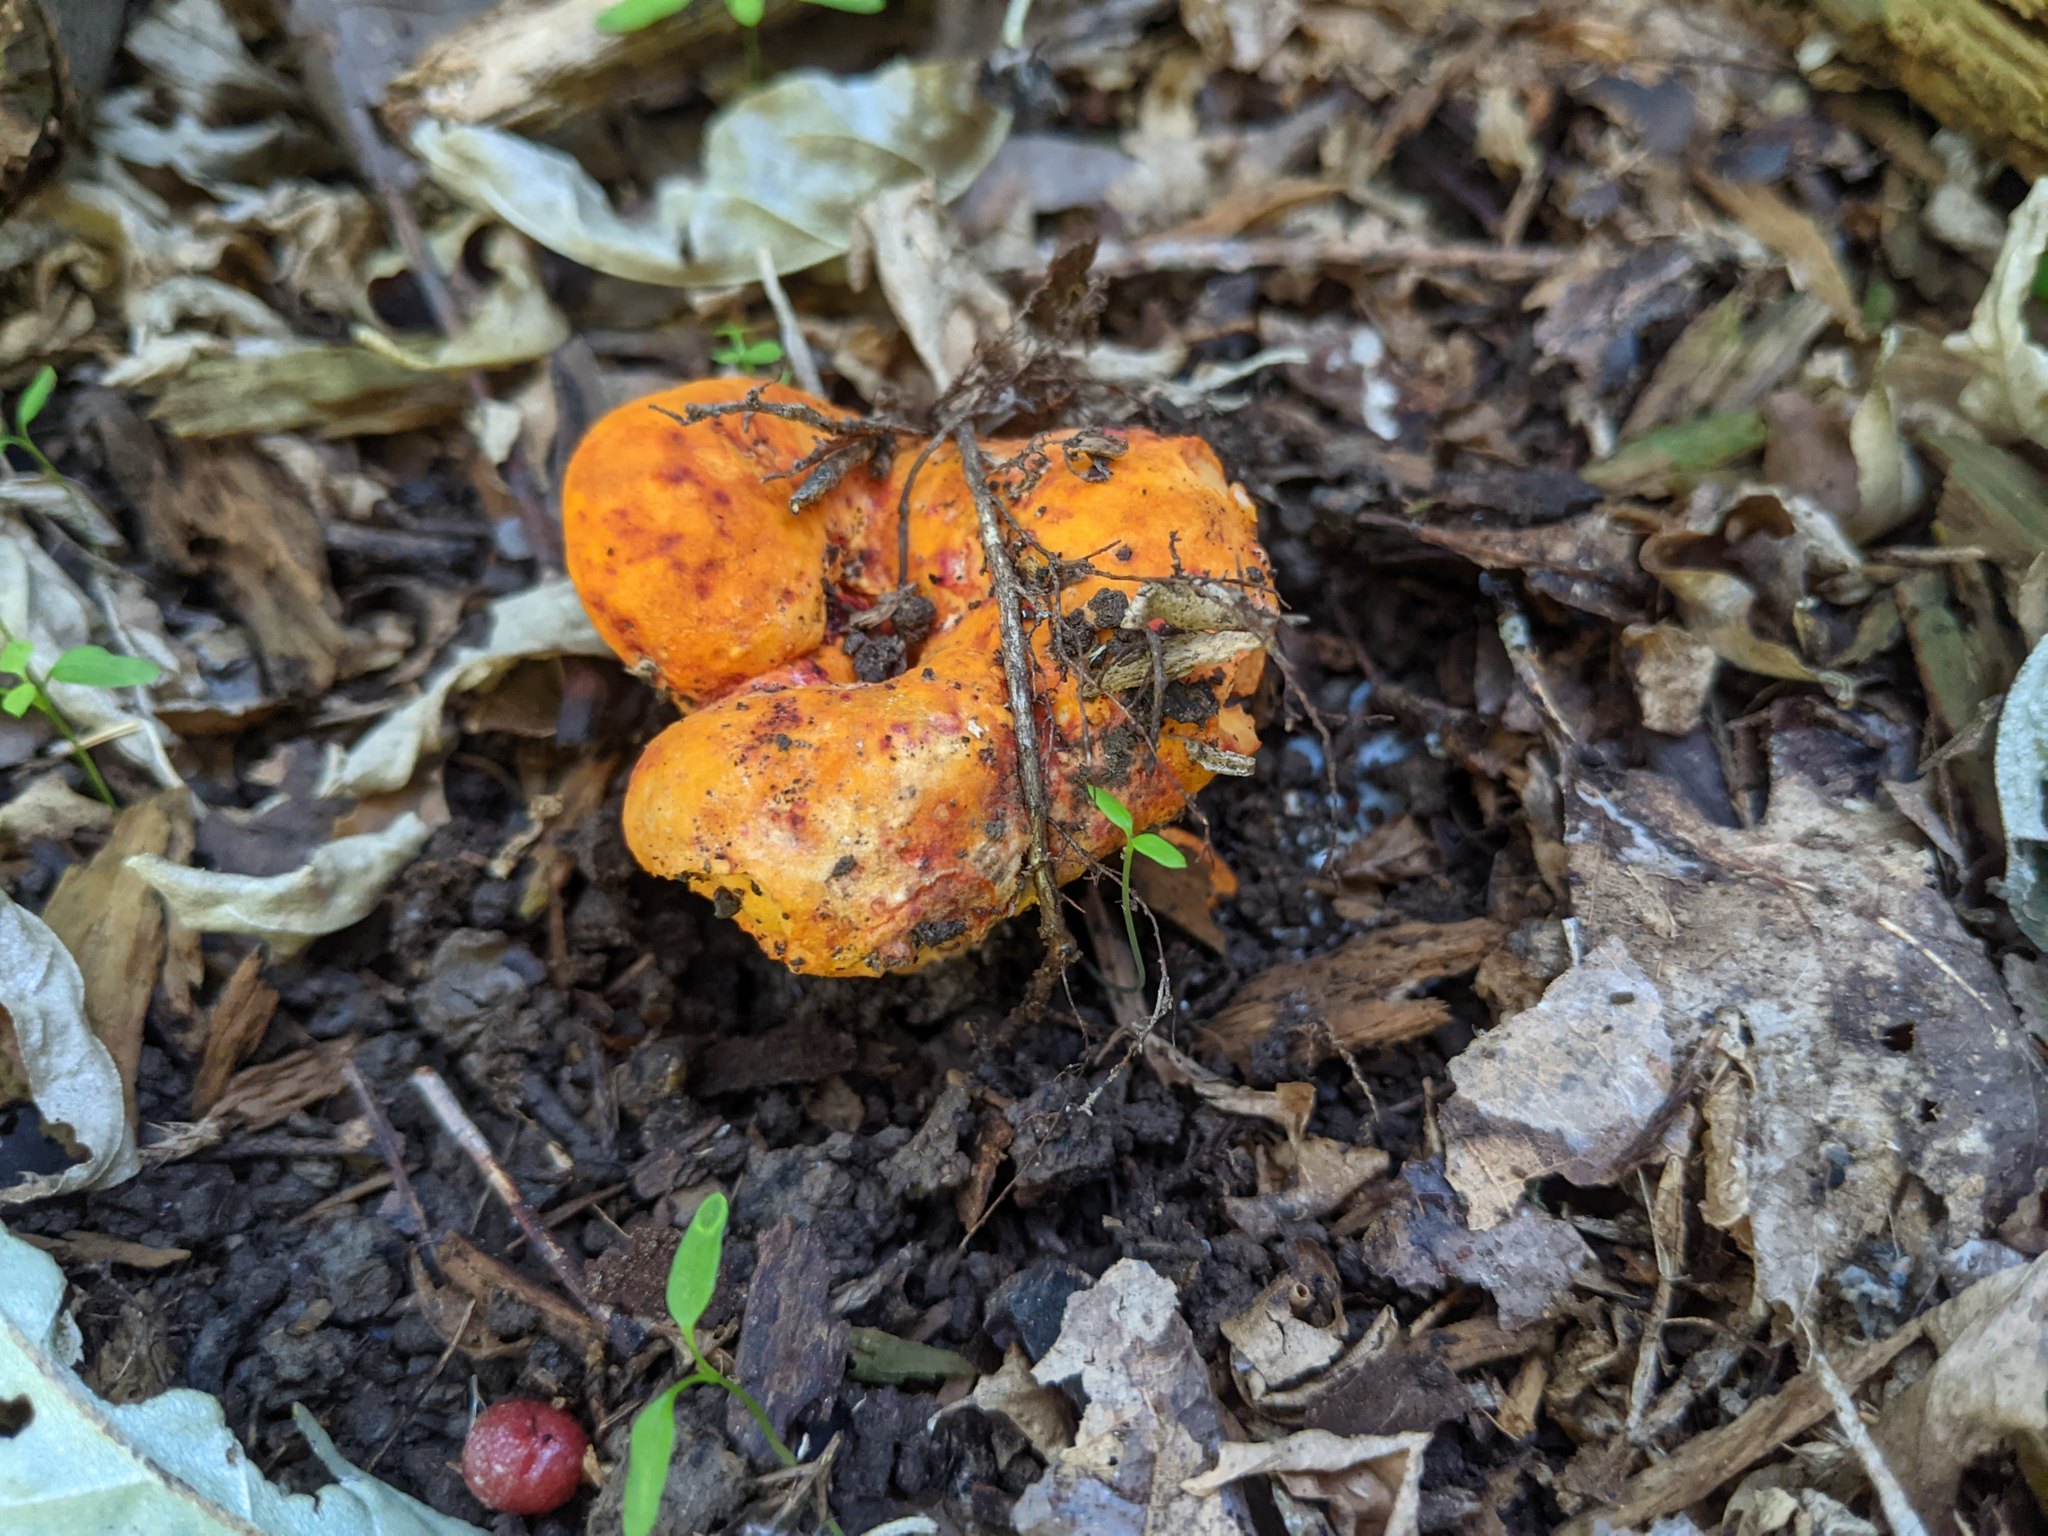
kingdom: Fungi
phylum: Ascomycota
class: Sordariomycetes
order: Hypocreales
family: Hypocreaceae
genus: Hypomyces
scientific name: Hypomyces lactifluorum
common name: Lobster mushroom
